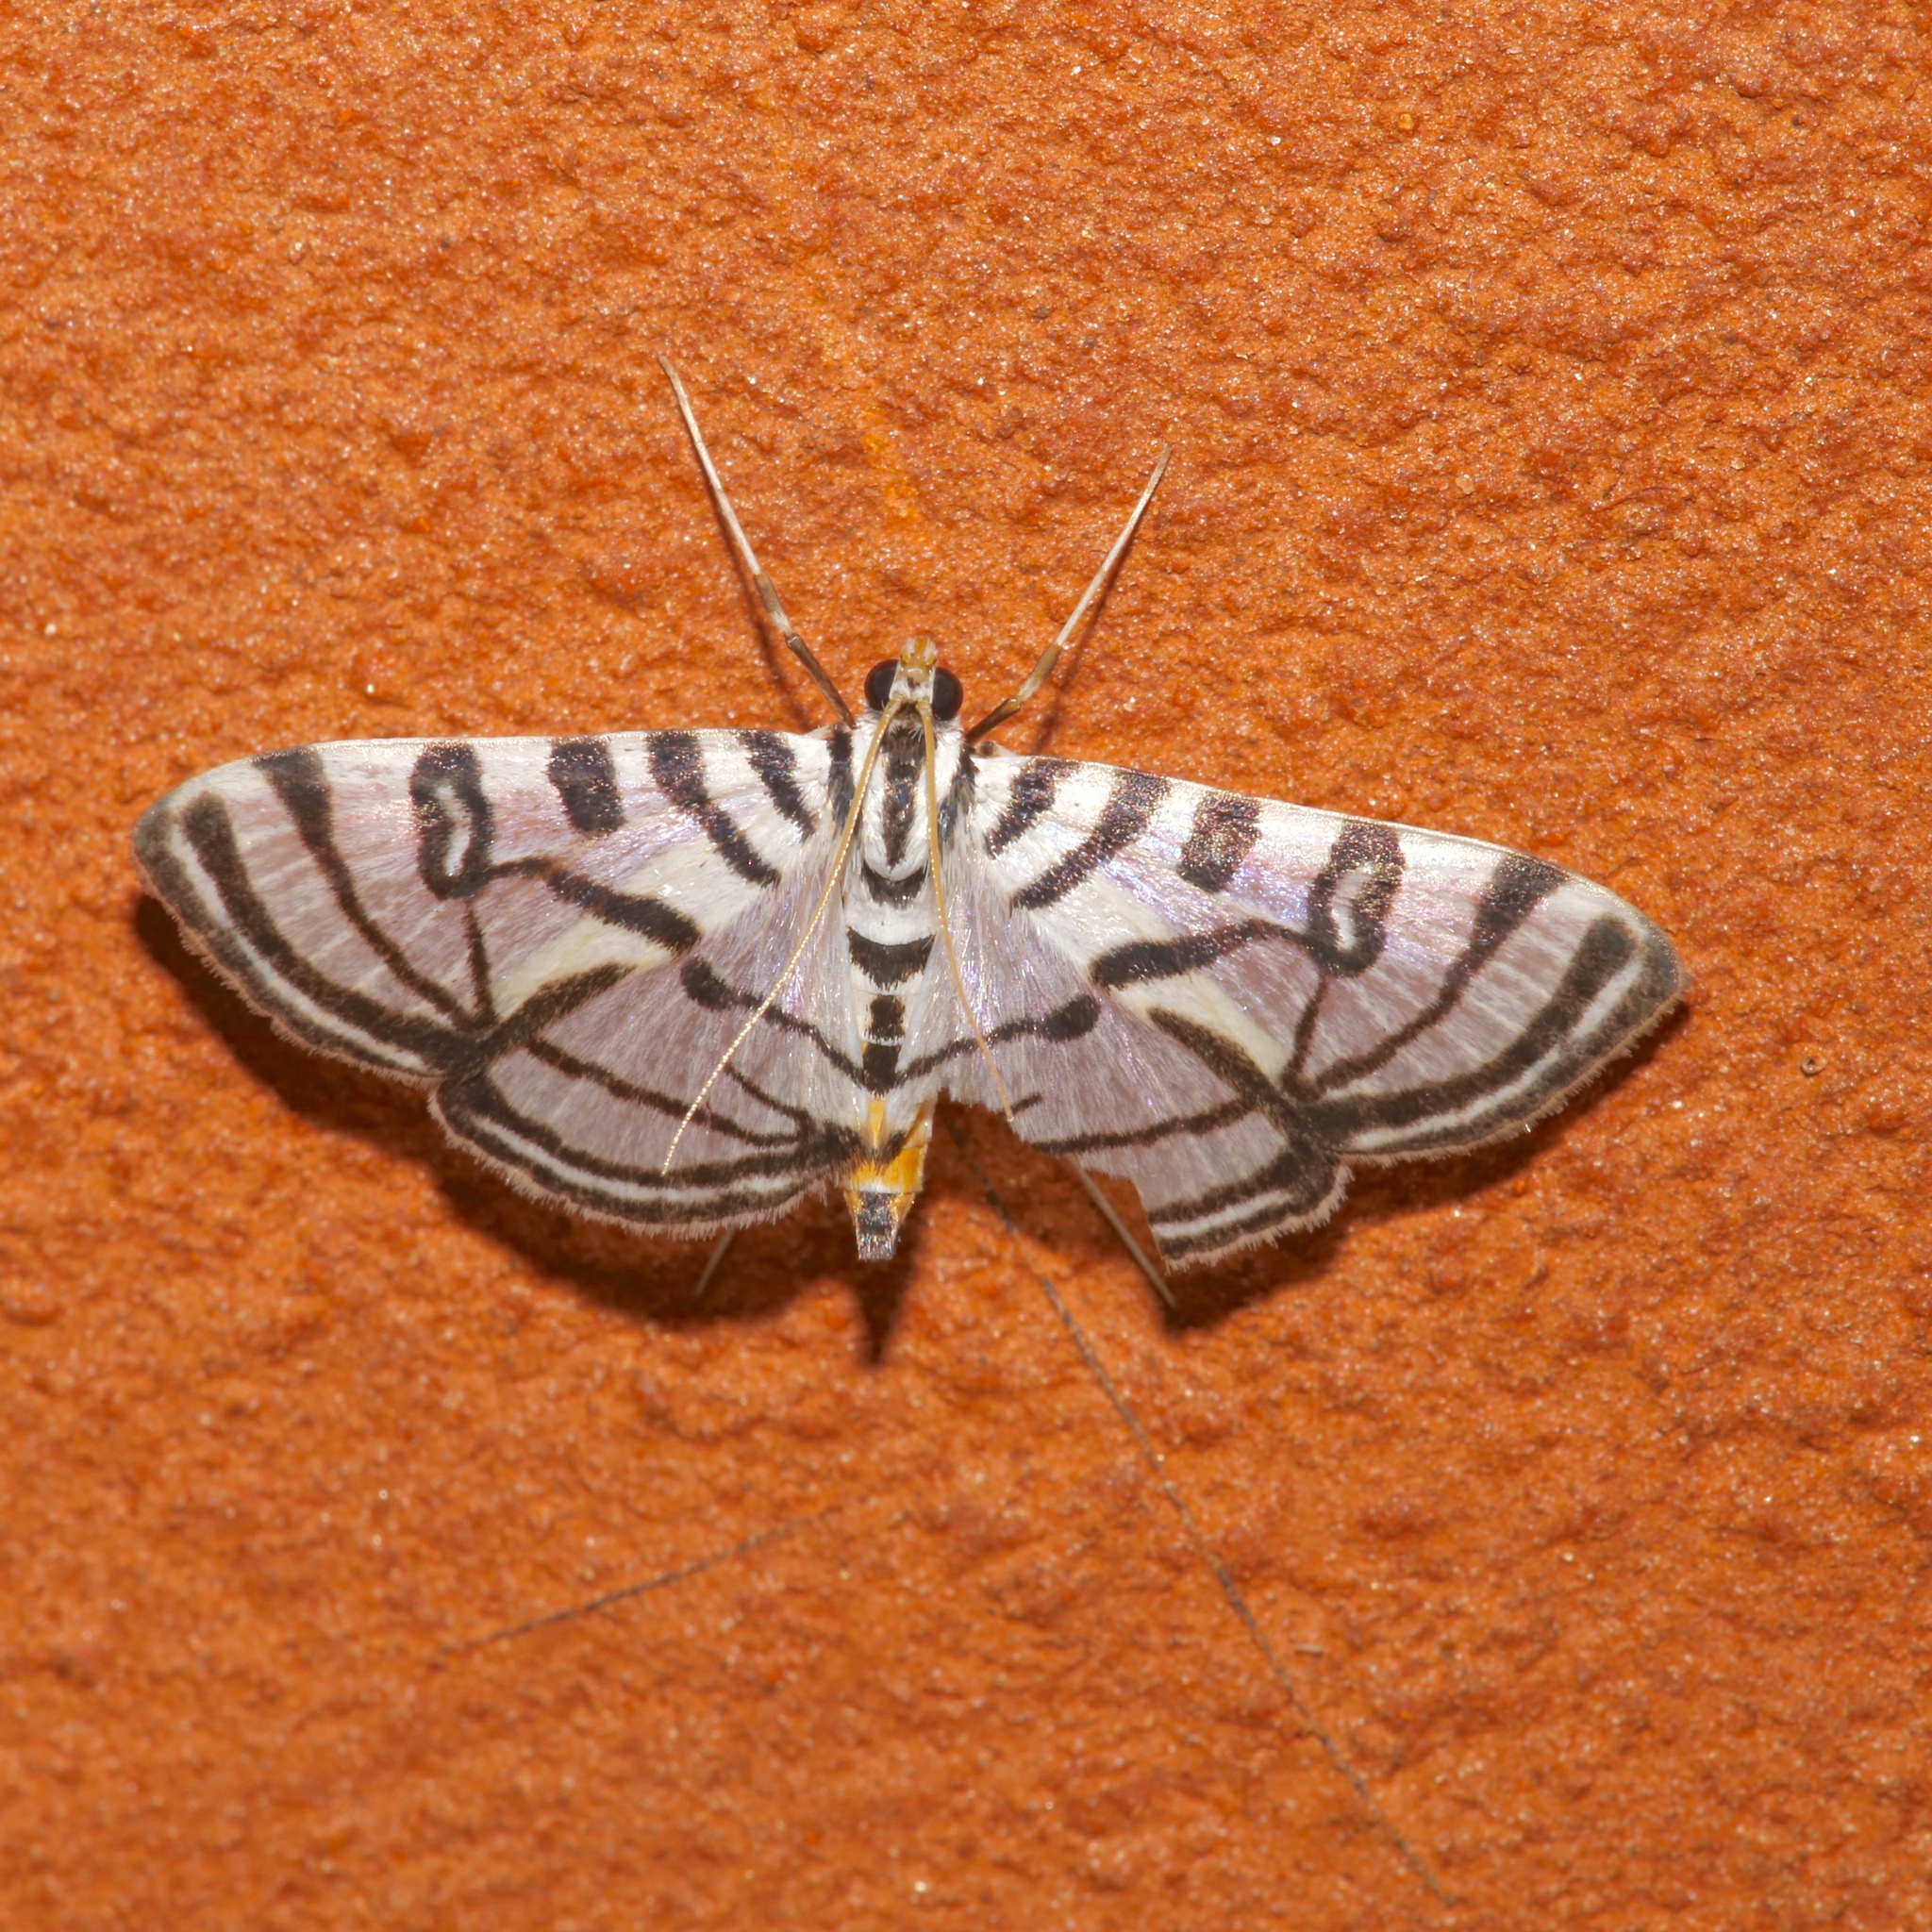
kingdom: Animalia
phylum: Arthropoda
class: Insecta
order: Lepidoptera
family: Crambidae
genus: Conchylodes
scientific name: Conchylodes ovulalis
